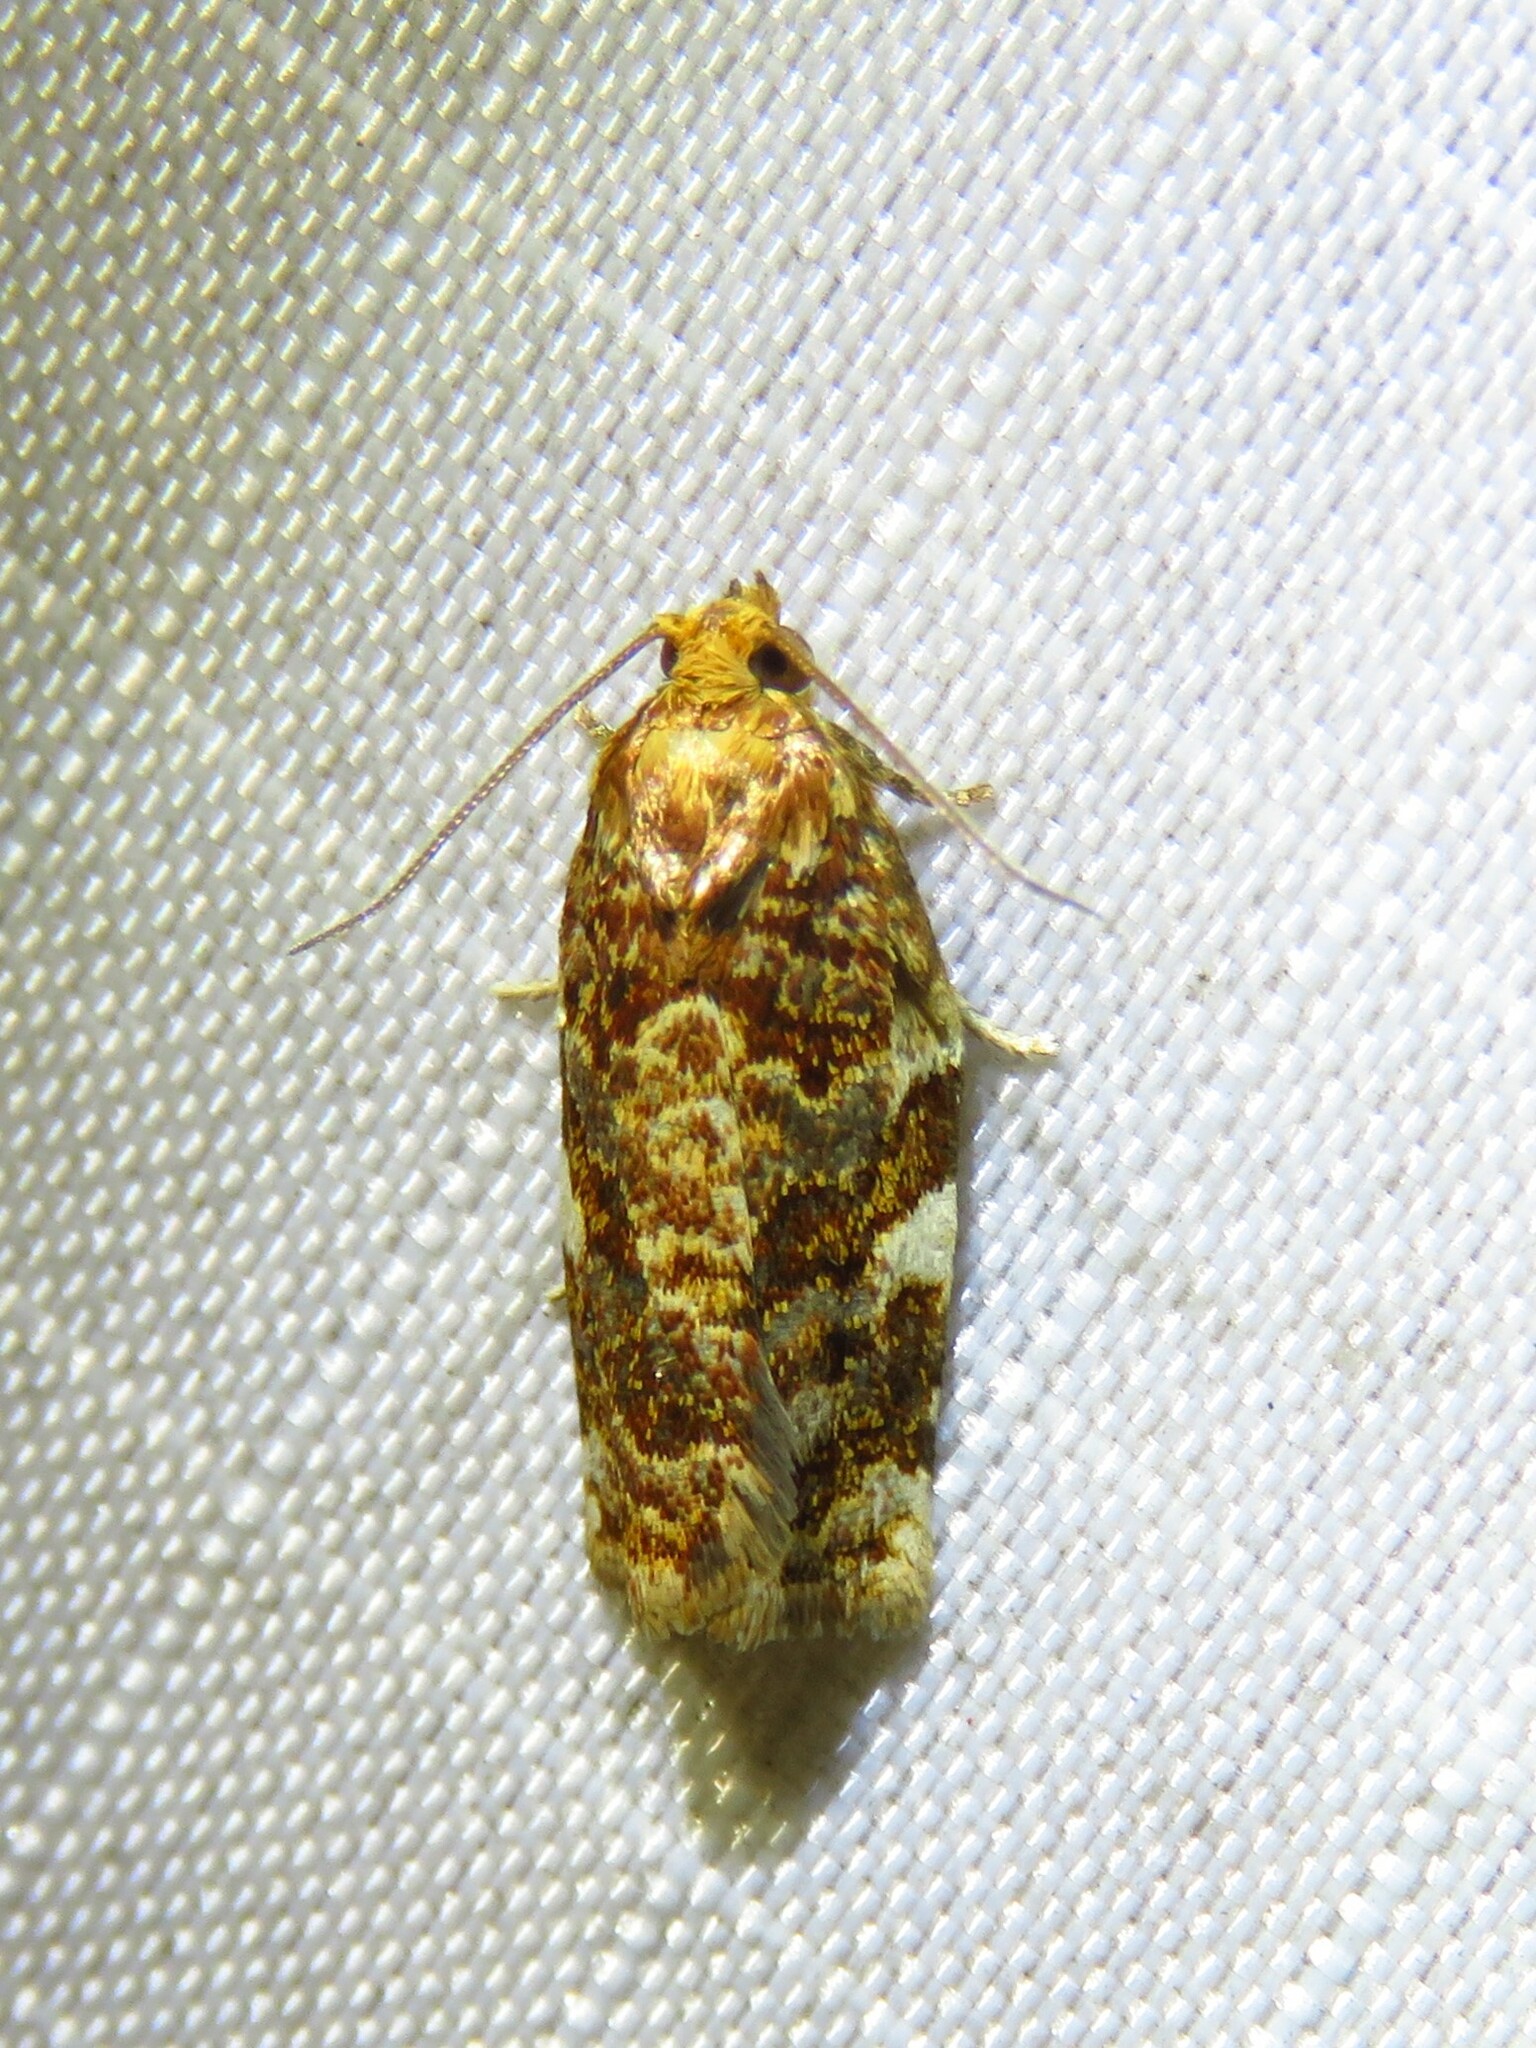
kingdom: Animalia
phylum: Arthropoda
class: Insecta
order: Lepidoptera
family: Tortricidae
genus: Archips
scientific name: Archips argyrospila
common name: Fruit-tree leafroller moth
